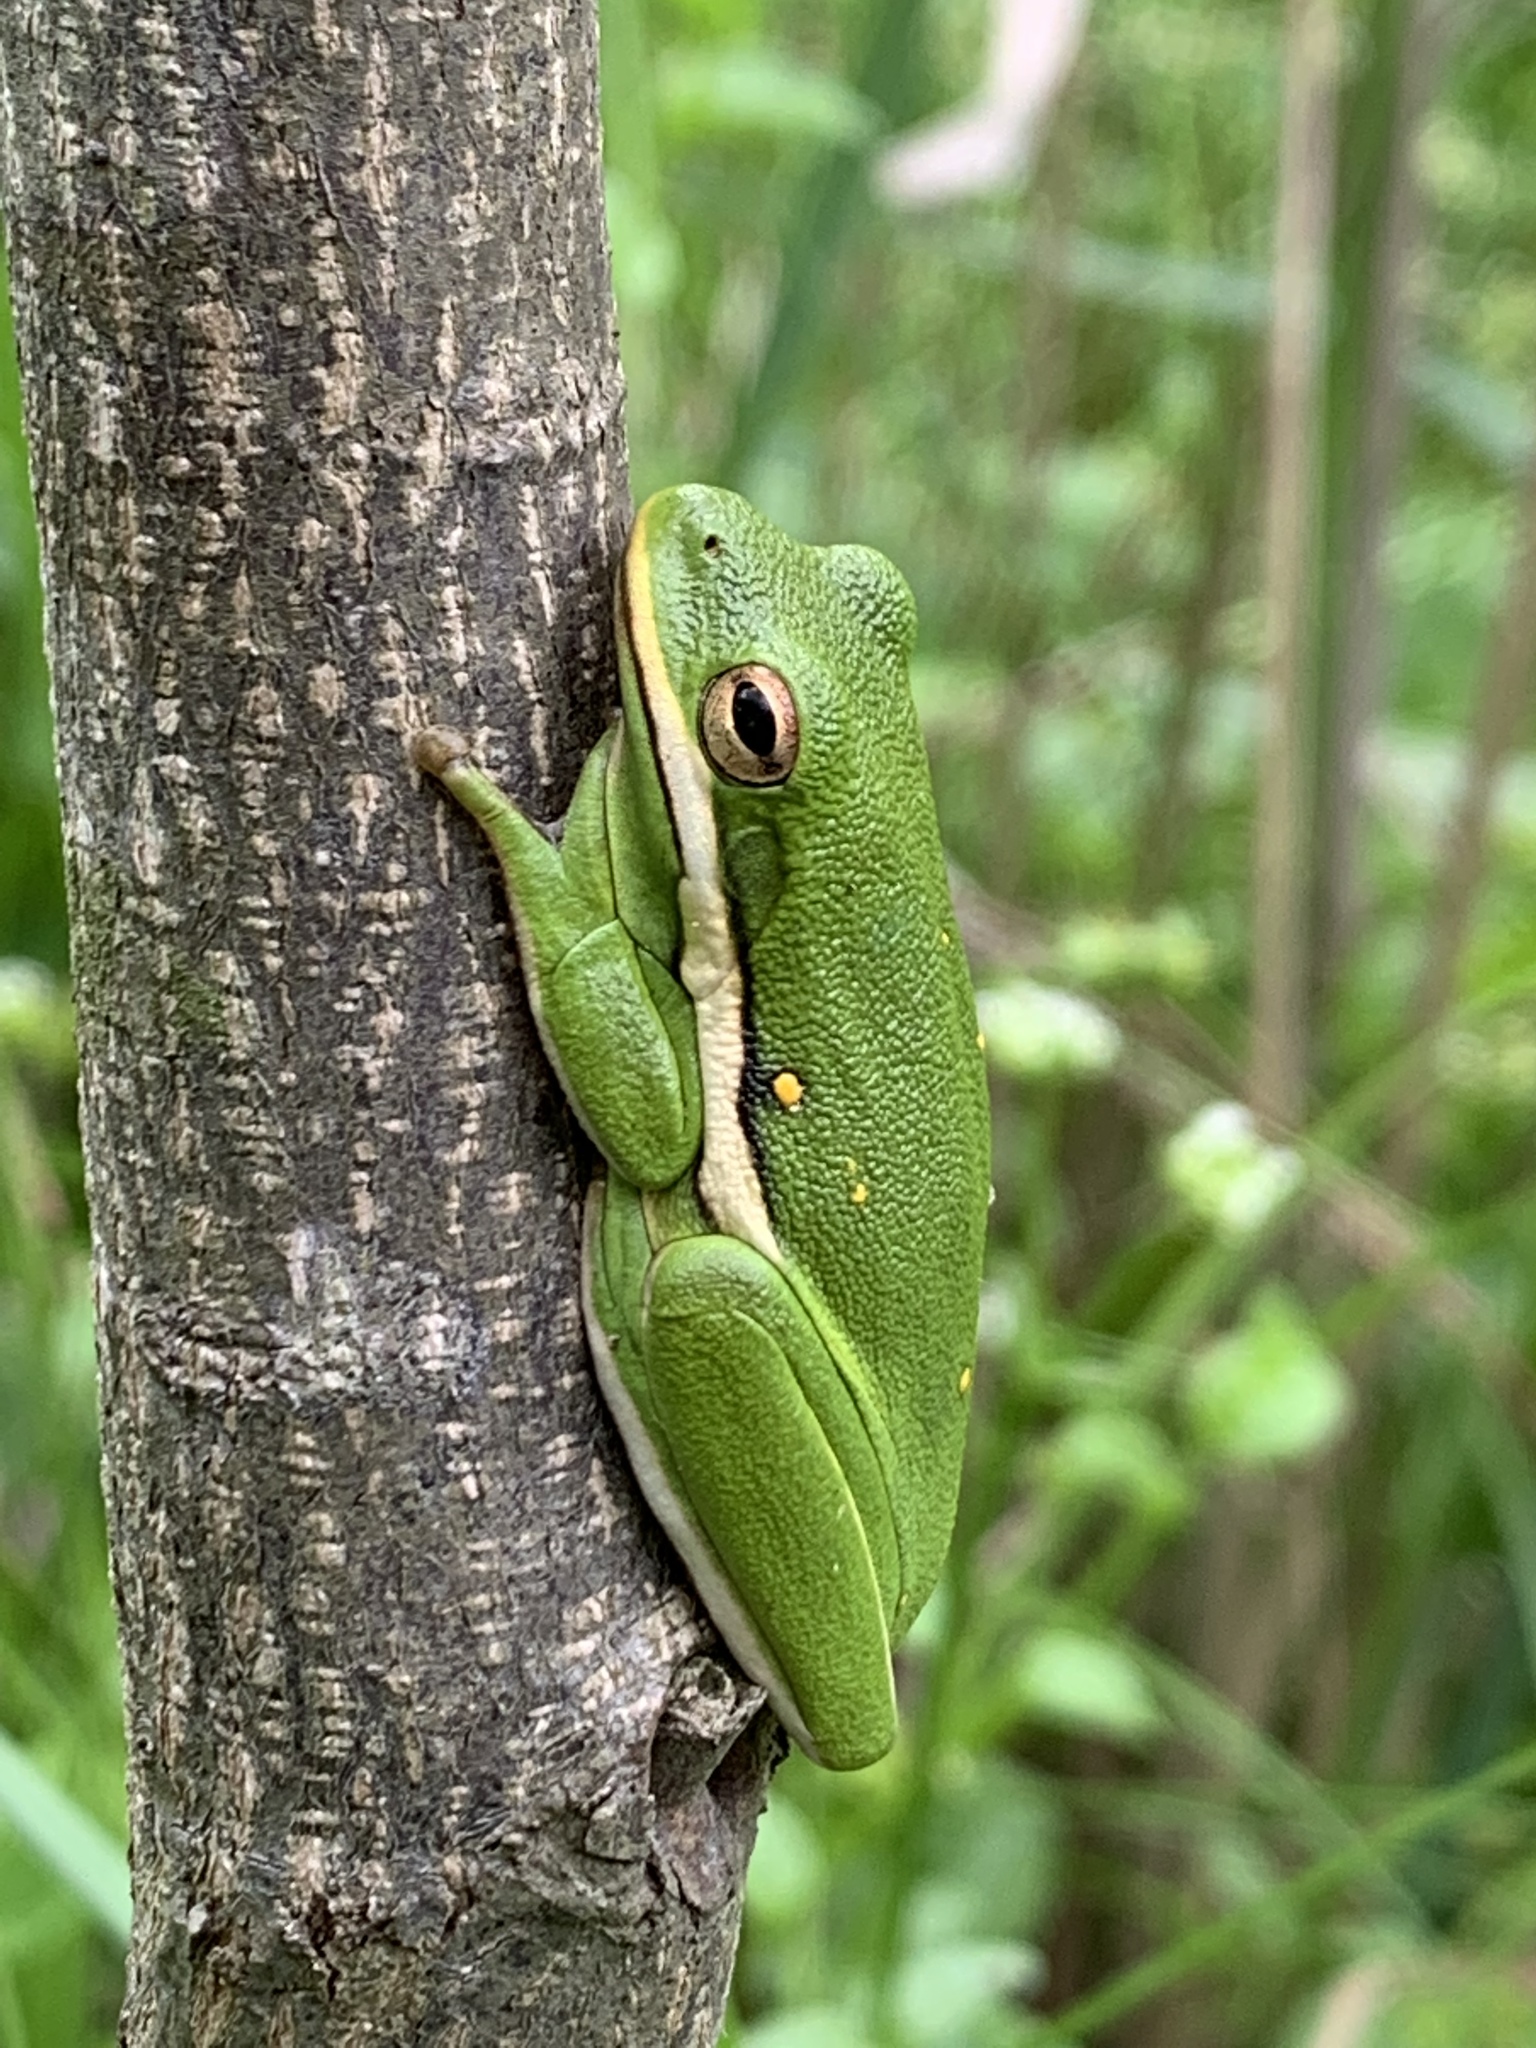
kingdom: Animalia
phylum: Chordata
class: Amphibia
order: Anura
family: Hylidae
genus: Dryophytes
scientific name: Dryophytes cinereus
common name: Green treefrog
